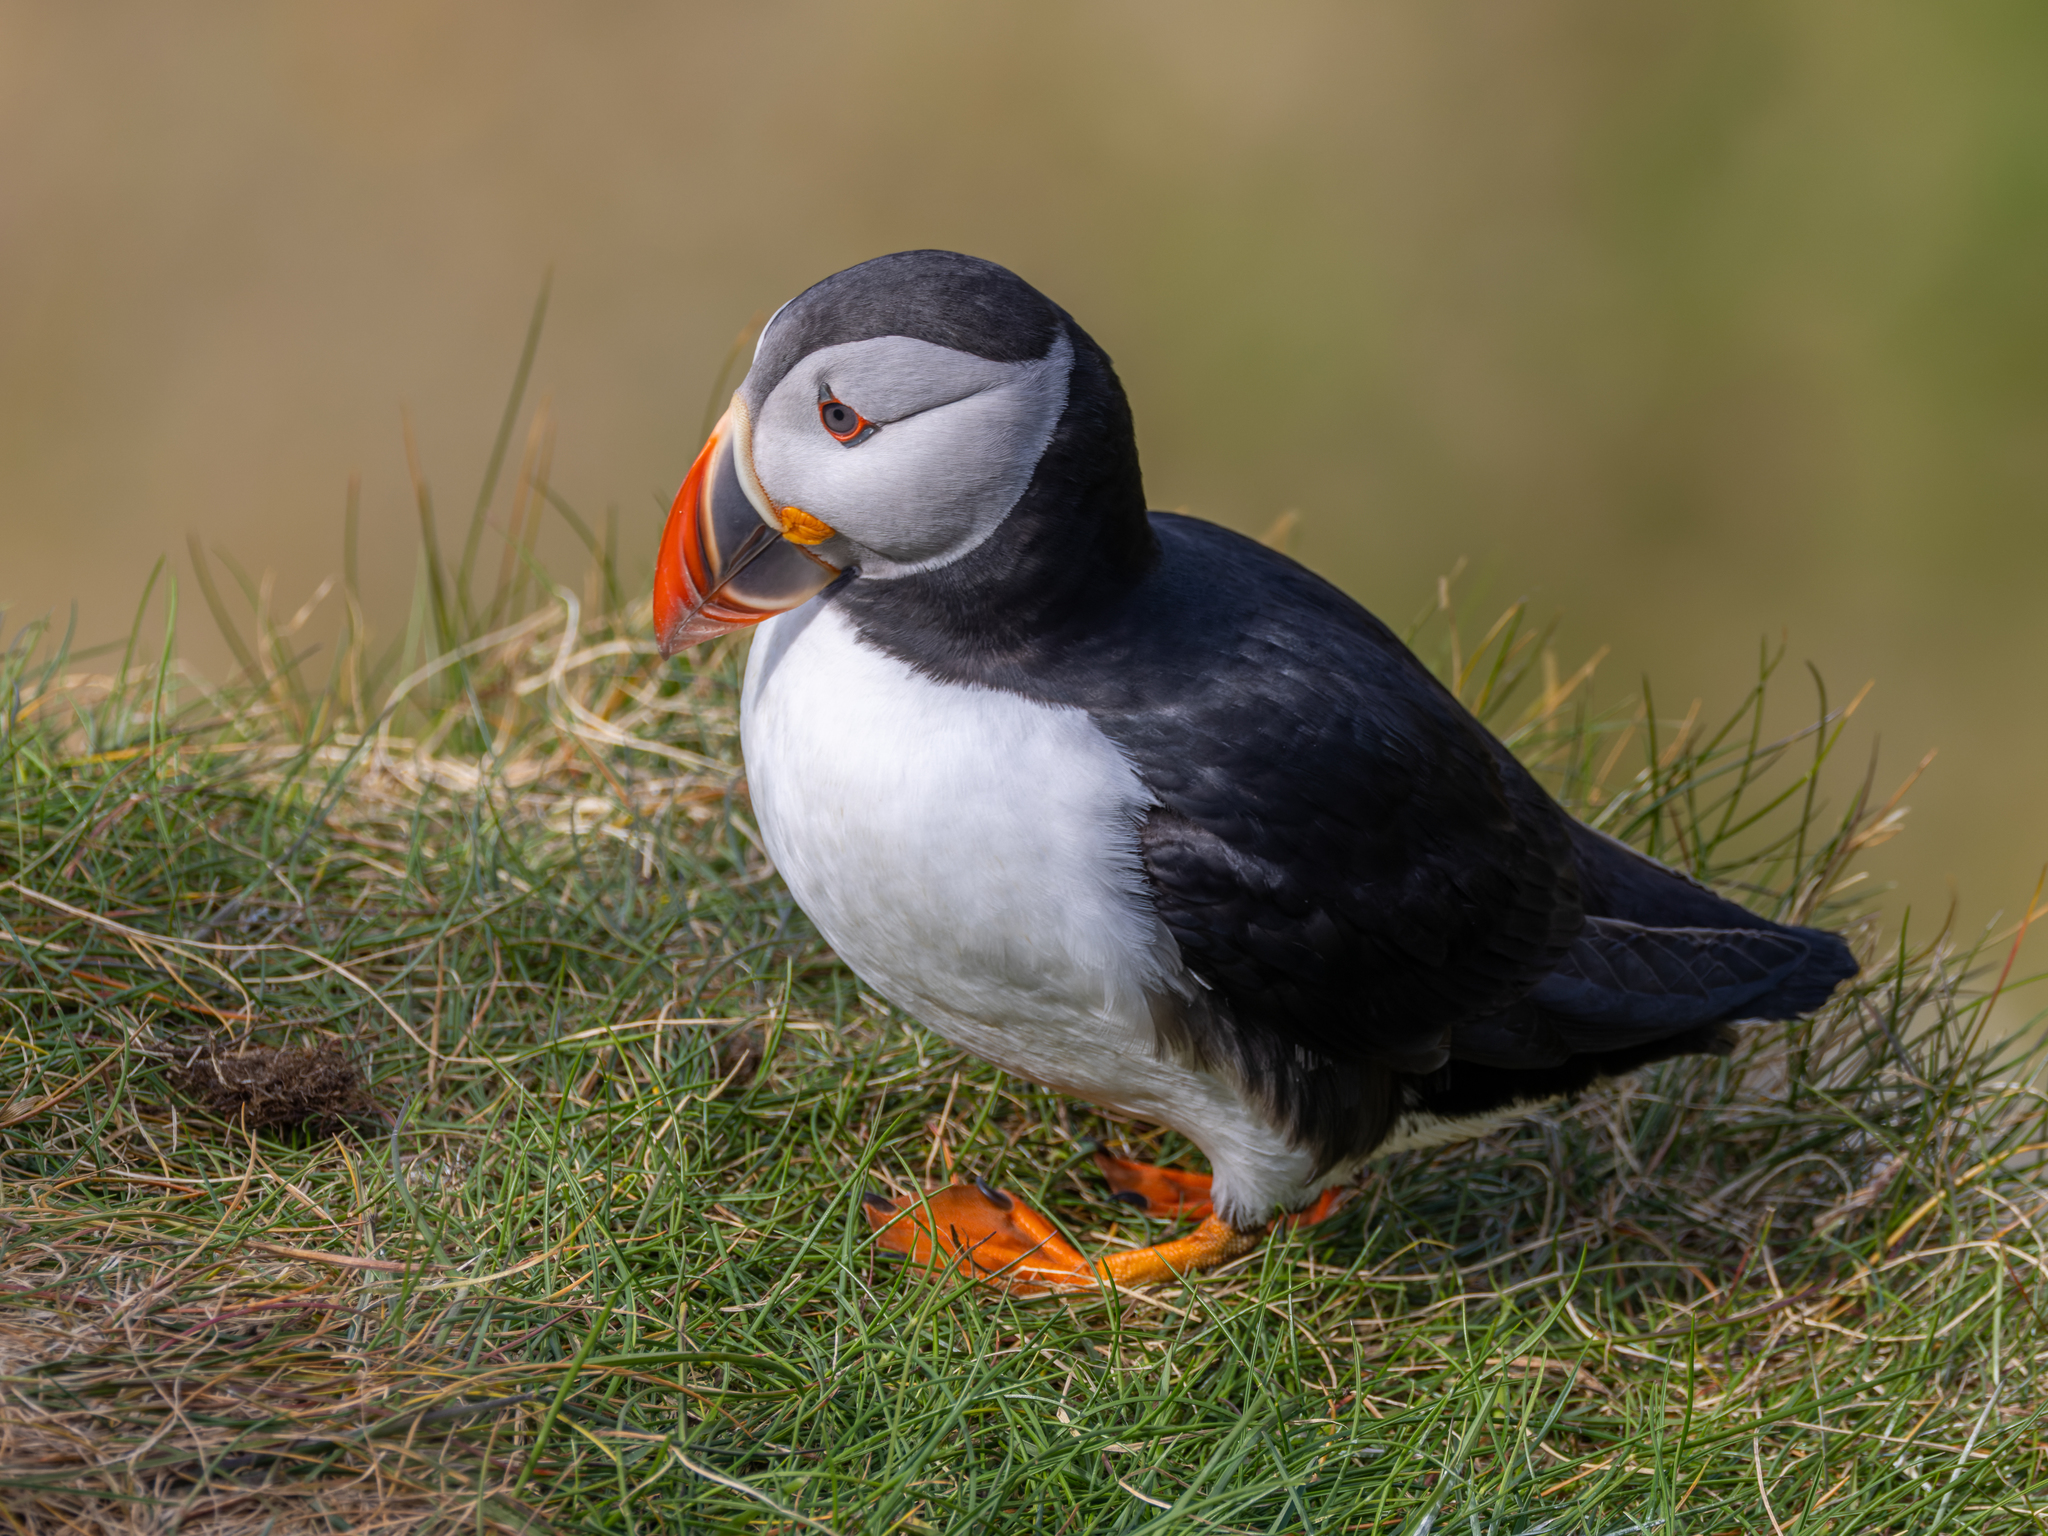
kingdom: Animalia
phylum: Chordata
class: Aves
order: Charadriiformes
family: Alcidae
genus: Fratercula
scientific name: Fratercula arctica
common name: Atlantic puffin
